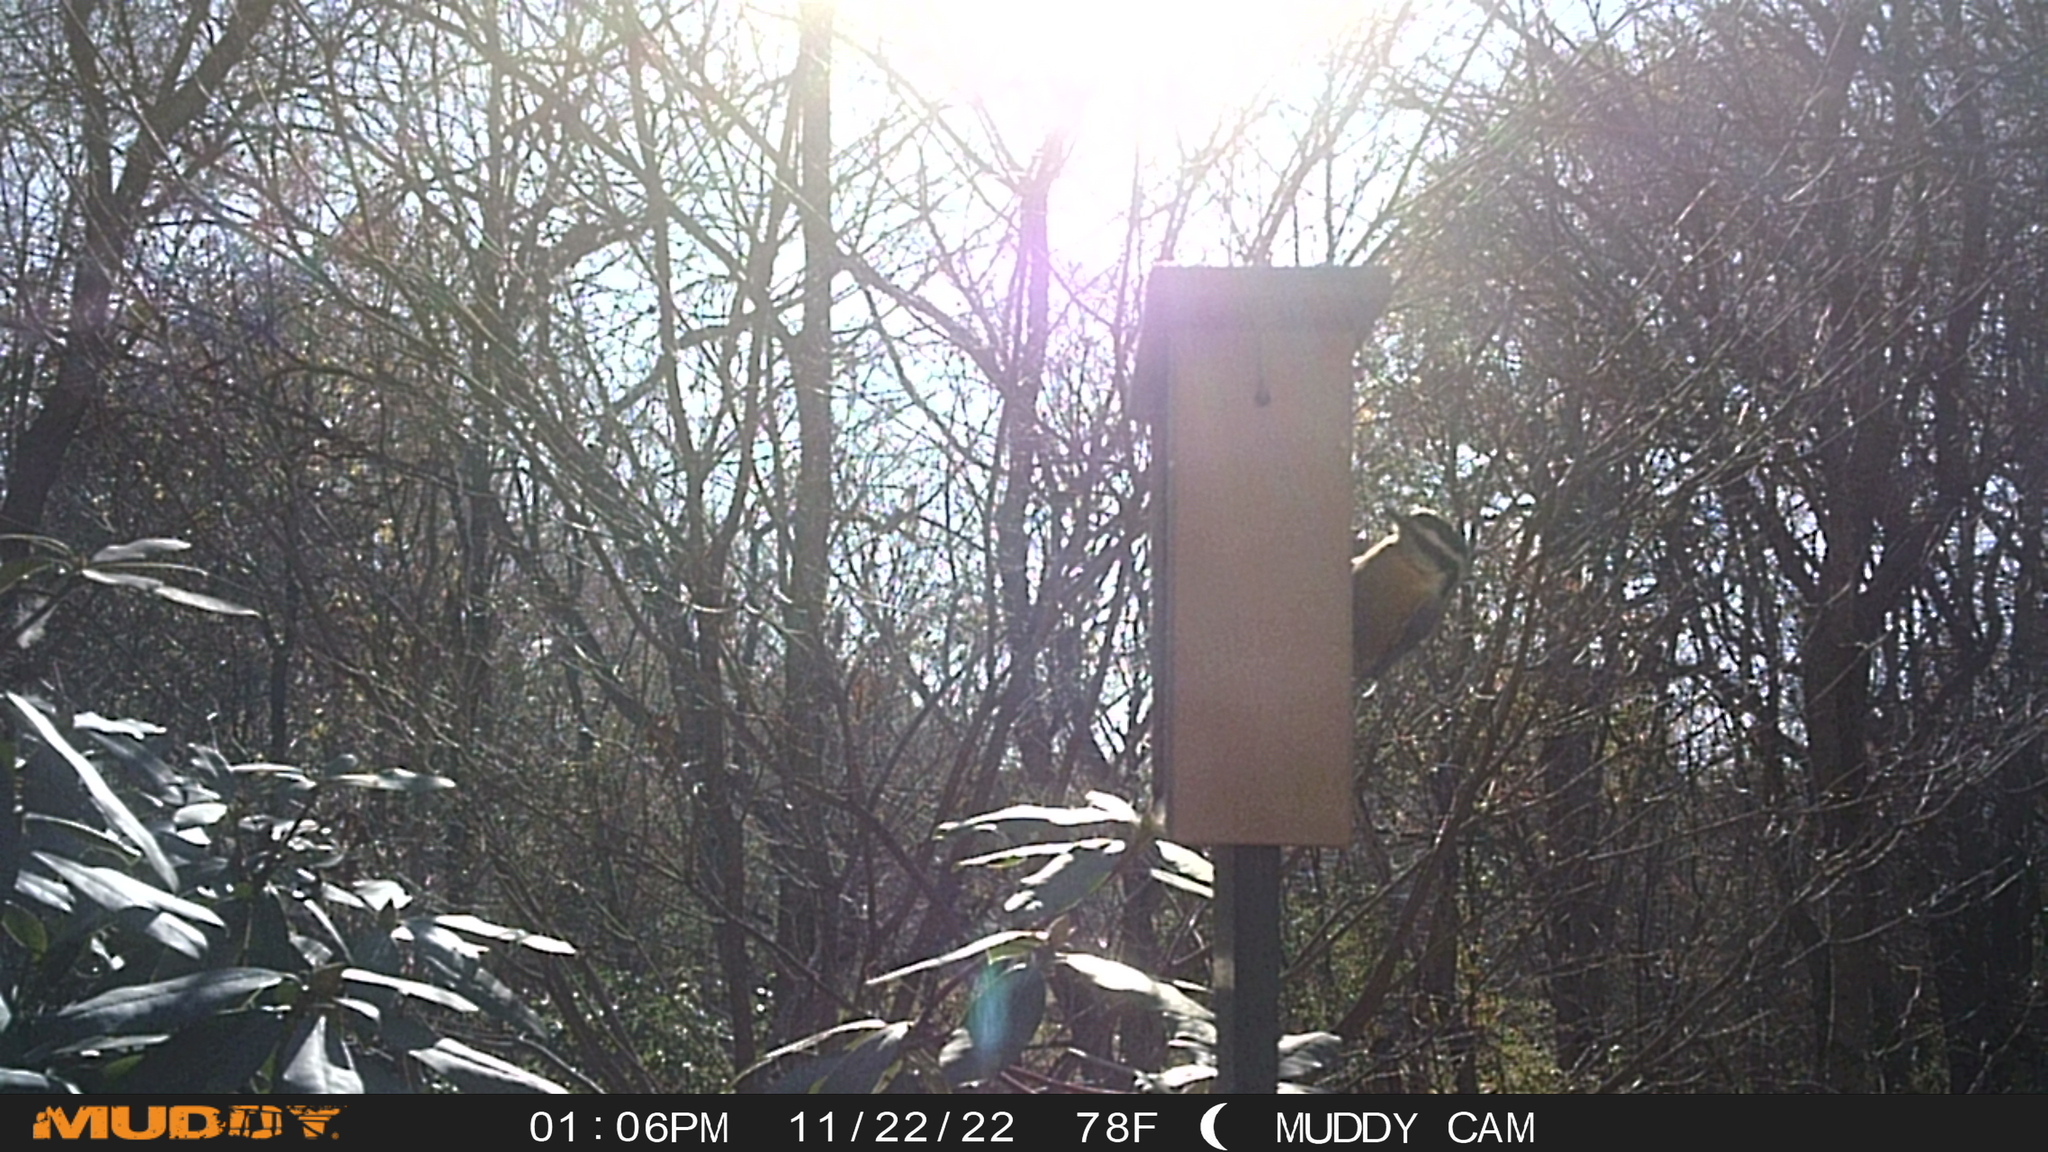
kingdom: Animalia
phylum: Chordata
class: Aves
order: Passeriformes
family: Sittidae
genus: Sitta
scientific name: Sitta canadensis
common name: Red-breasted nuthatch
